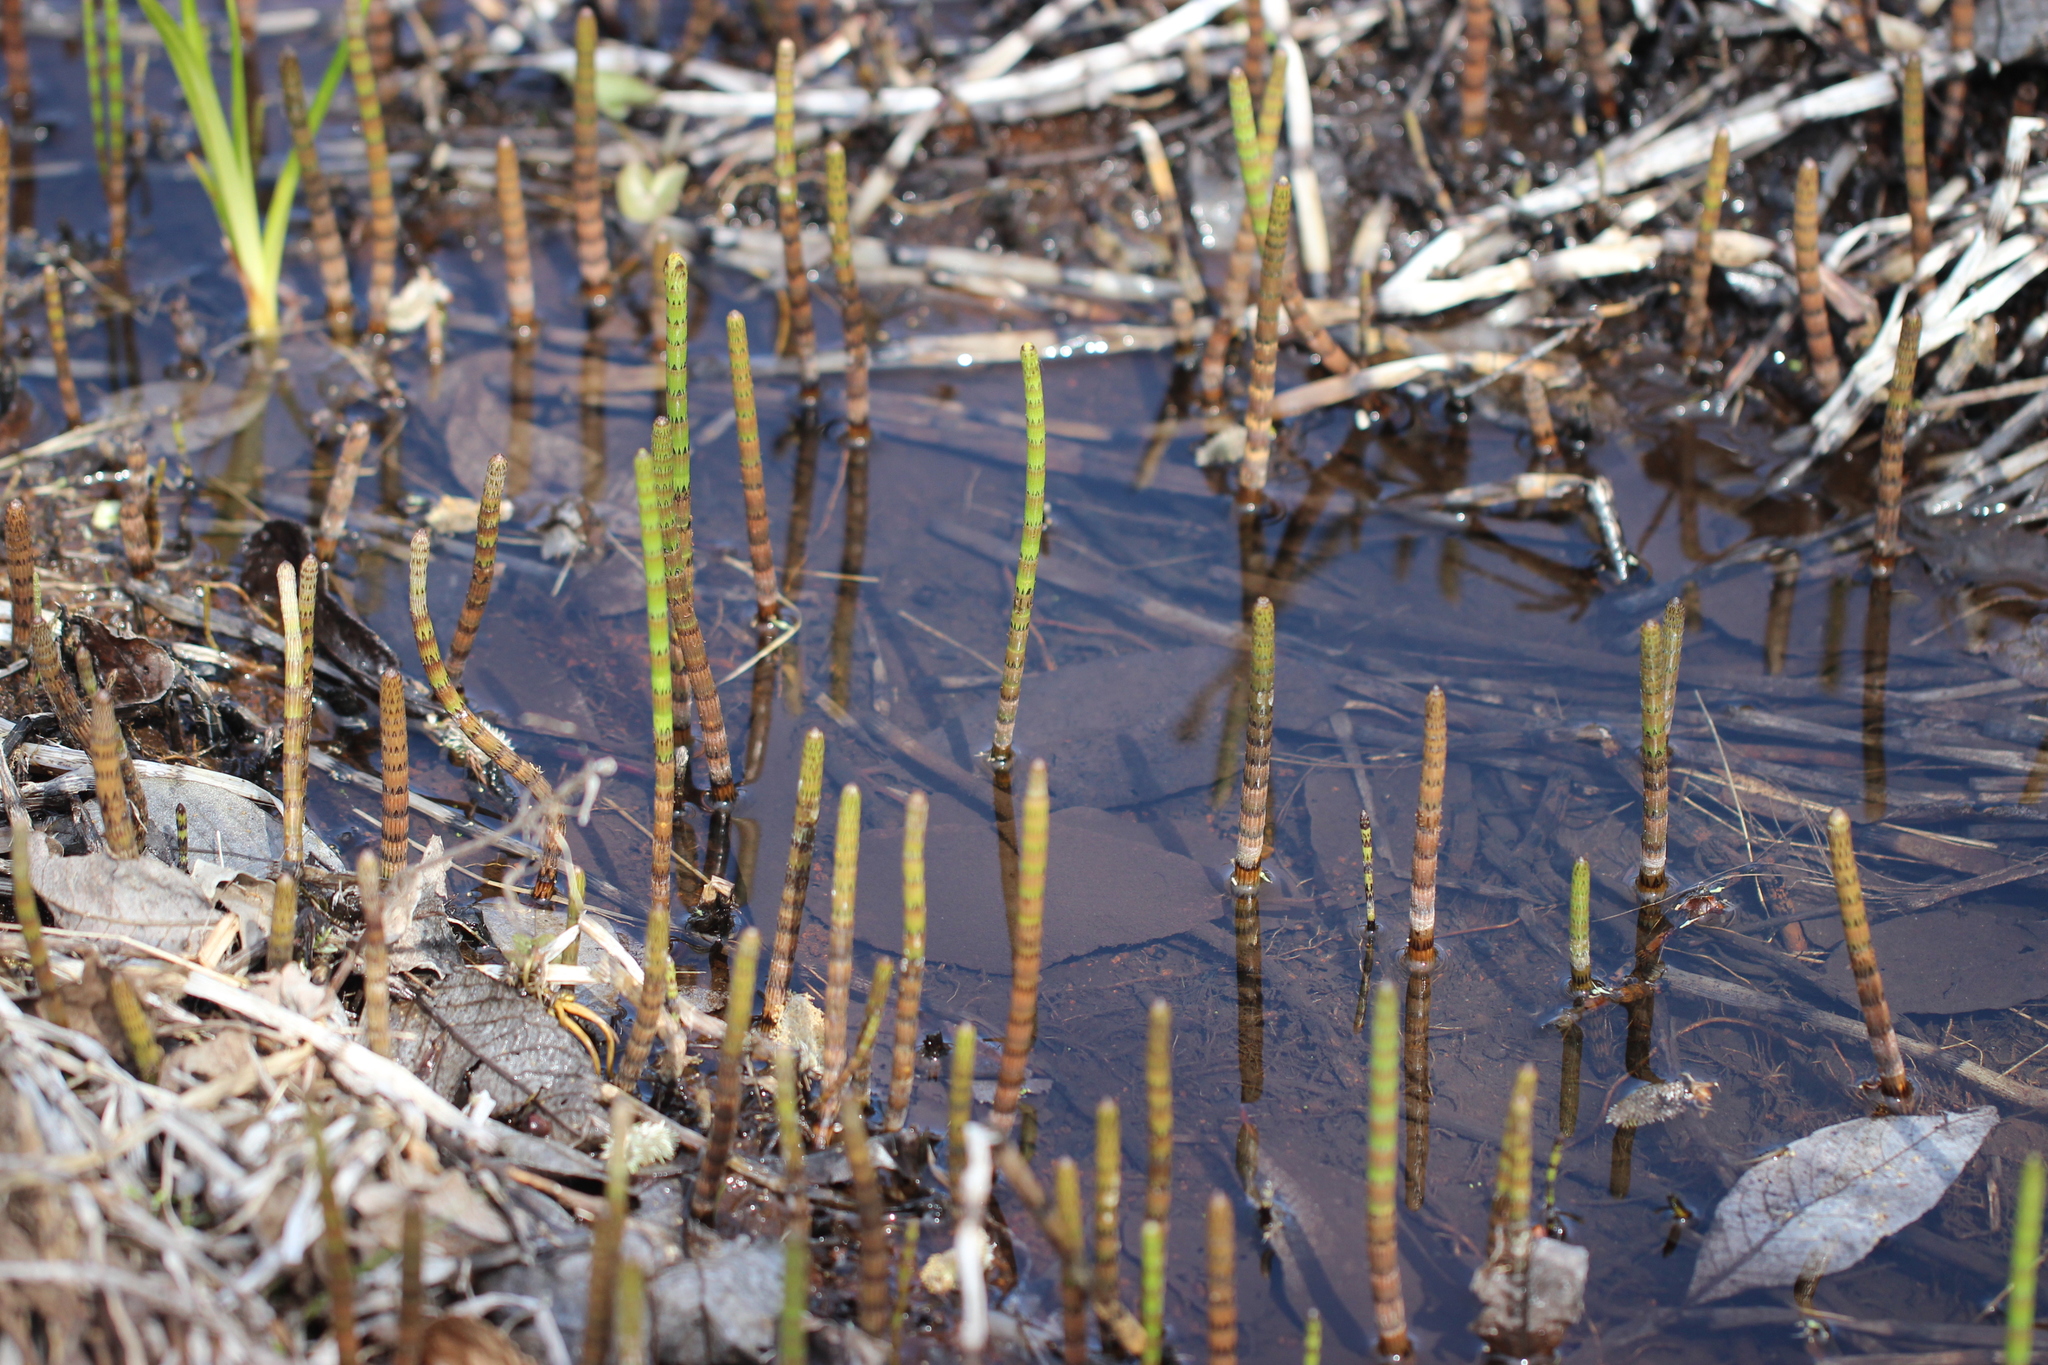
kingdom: Plantae
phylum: Tracheophyta
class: Polypodiopsida
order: Equisetales
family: Equisetaceae
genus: Equisetum
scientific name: Equisetum fluviatile
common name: Water horsetail
